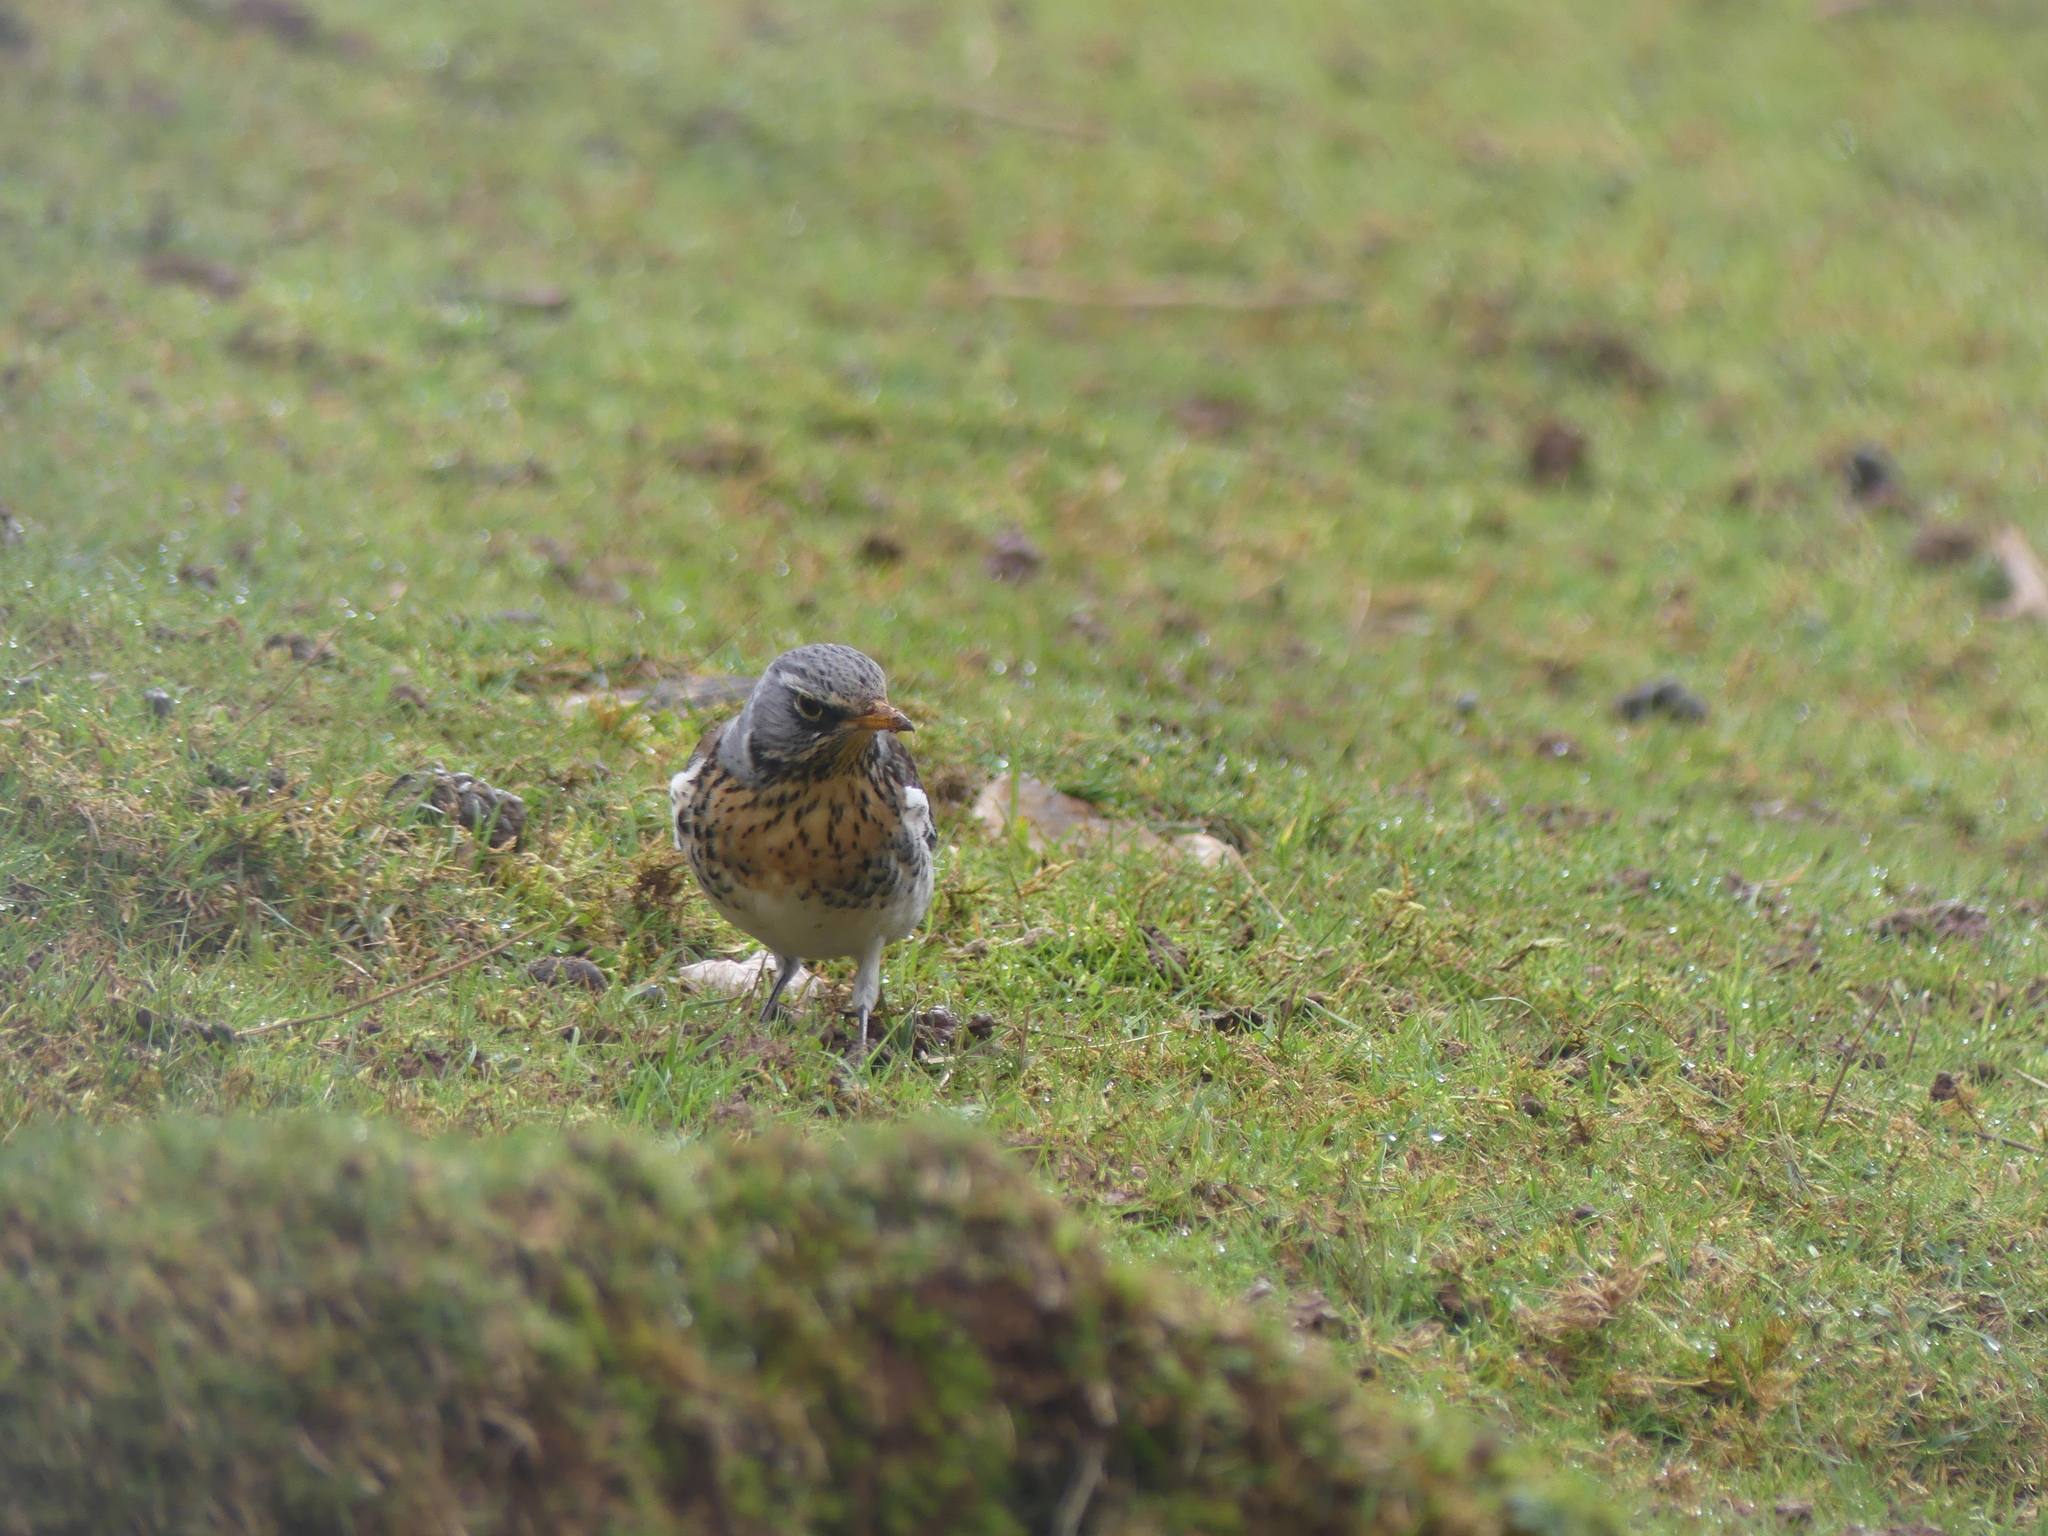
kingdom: Animalia
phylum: Chordata
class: Aves
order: Passeriformes
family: Turdidae
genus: Turdus
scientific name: Turdus pilaris
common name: Fieldfare
